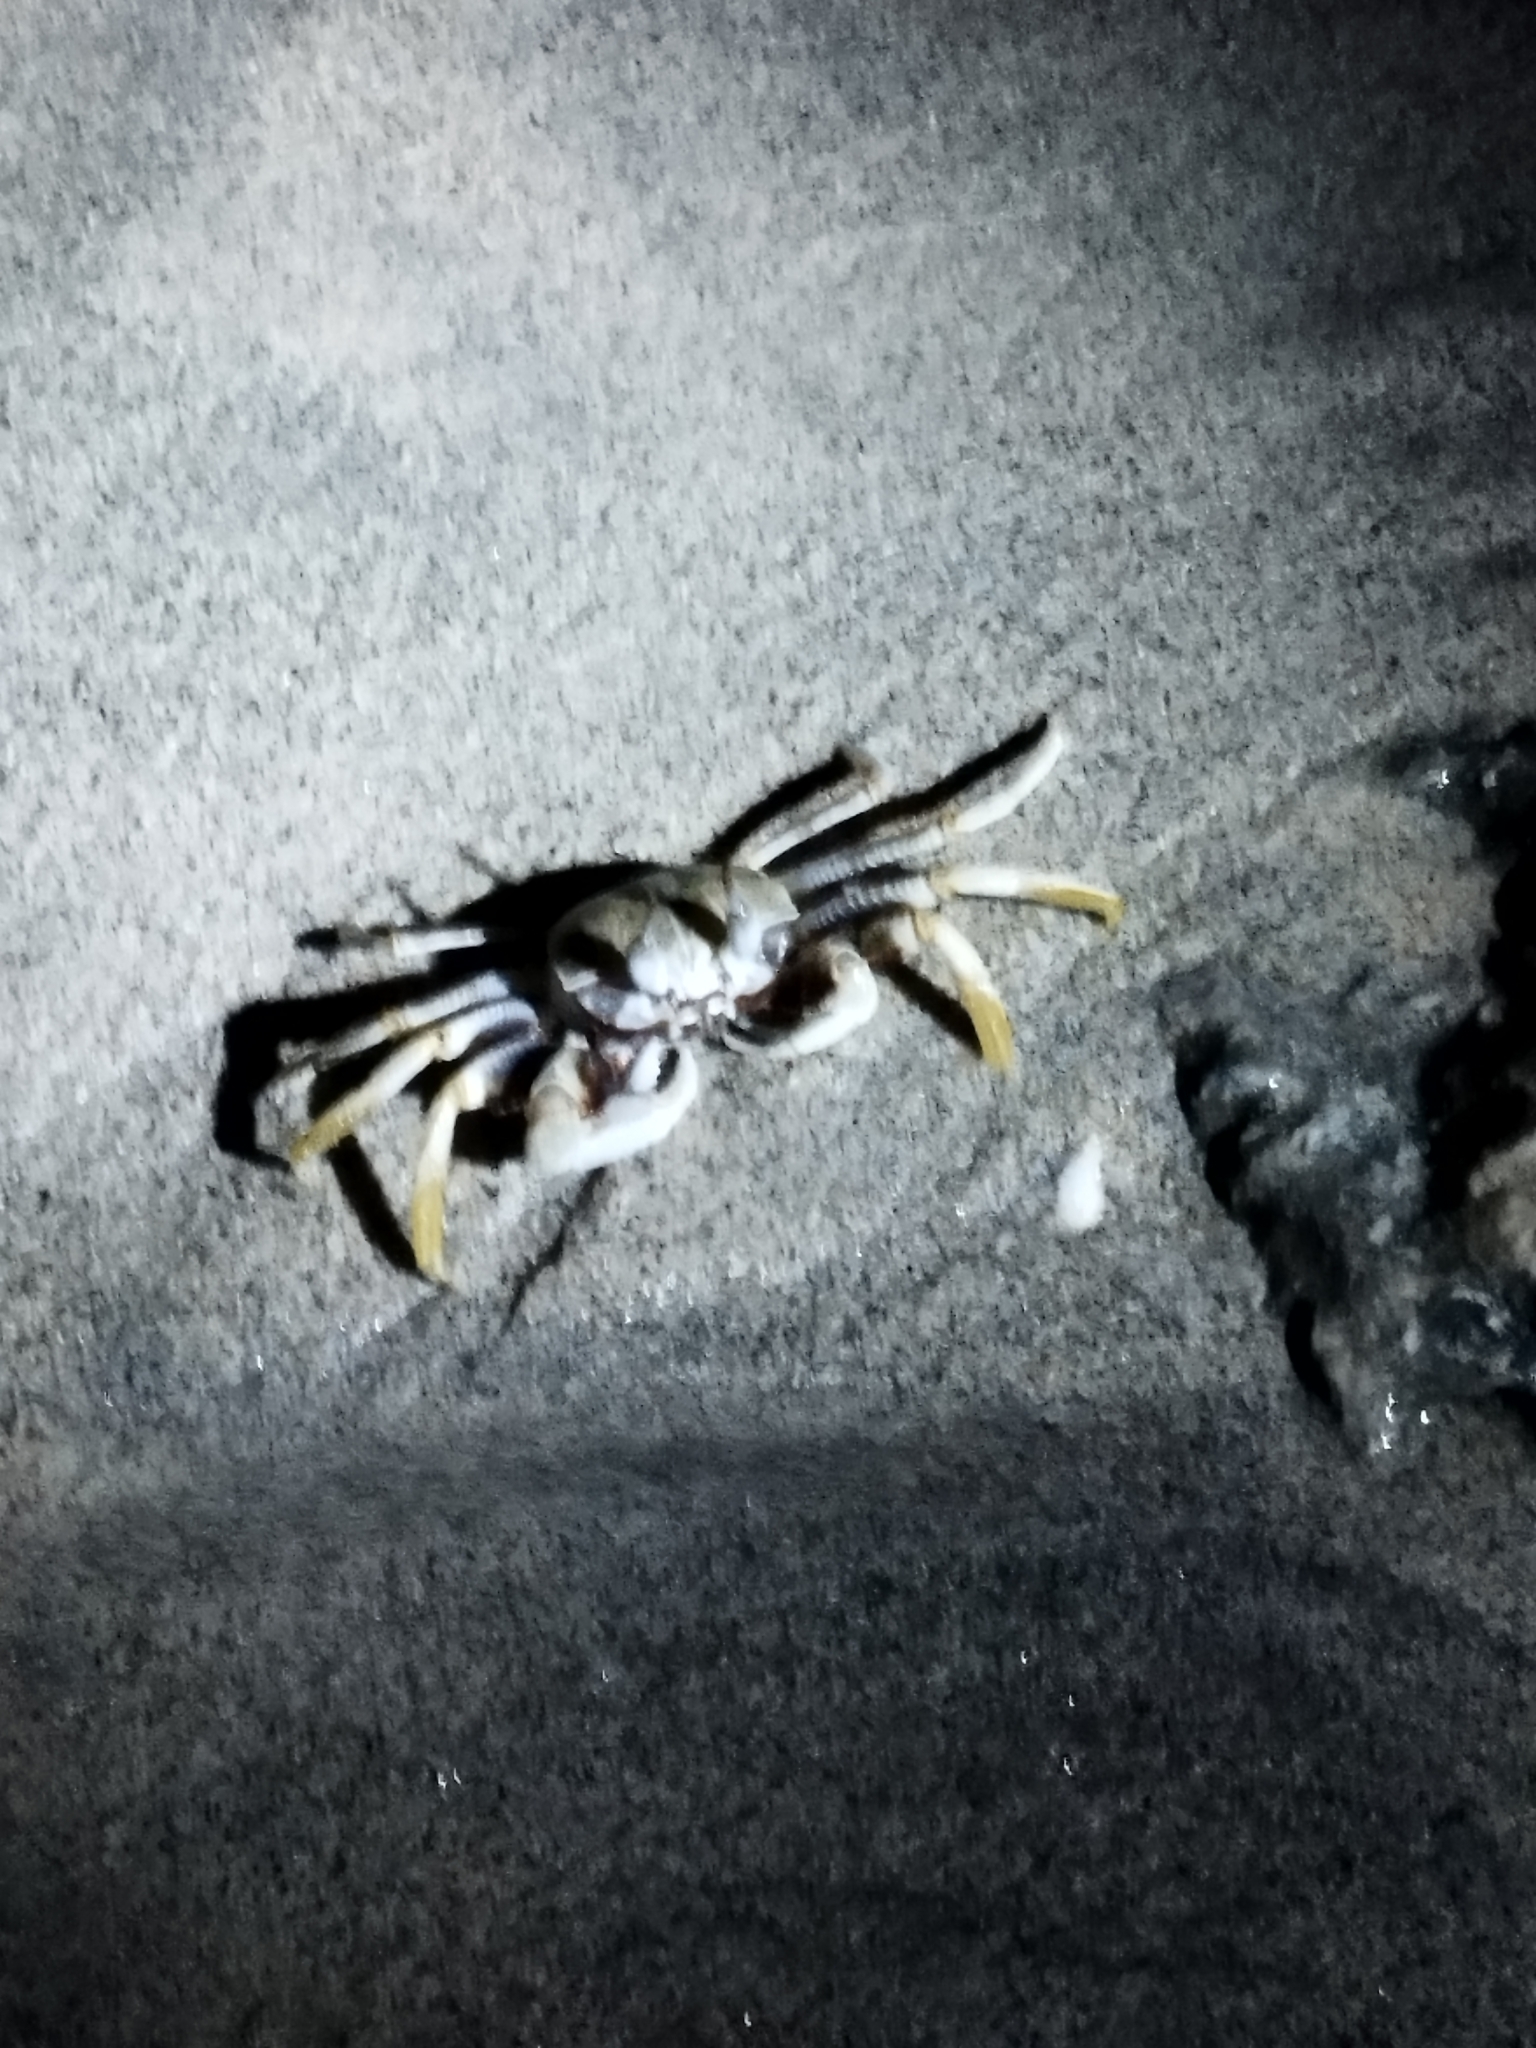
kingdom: Animalia
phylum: Arthropoda
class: Malacostraca
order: Decapoda
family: Ocypodidae
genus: Ocypode
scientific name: Ocypode ceratophthalmus
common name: Indo-pacific ghost crab
